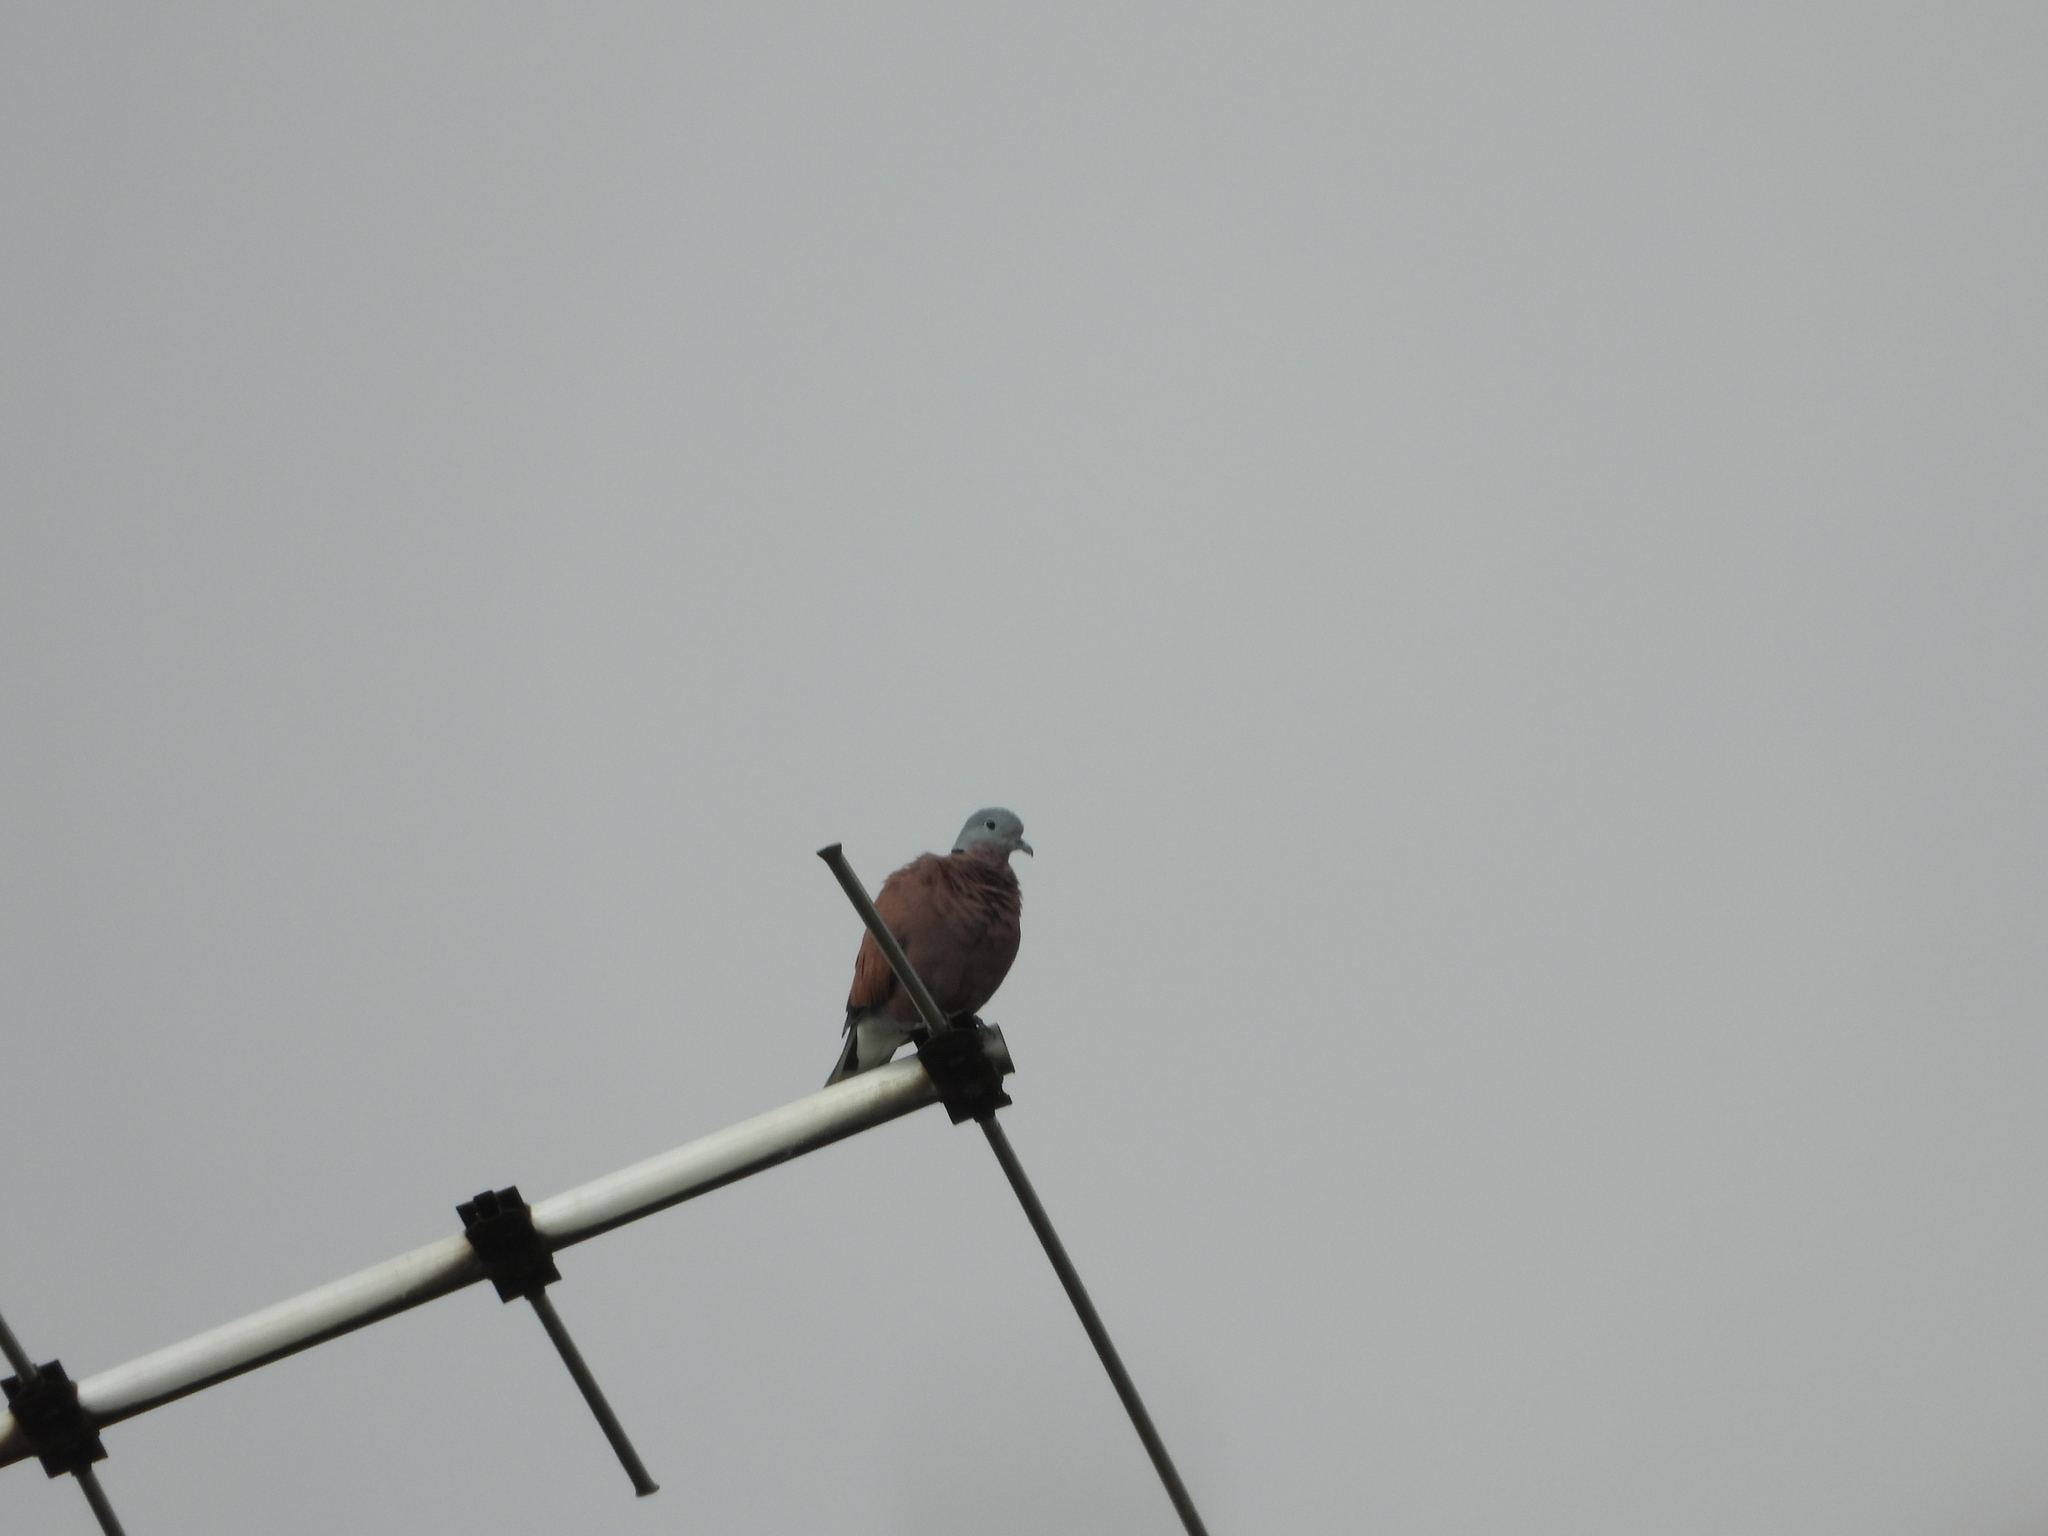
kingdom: Animalia
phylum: Chordata
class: Aves
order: Columbiformes
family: Columbidae
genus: Streptopelia
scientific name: Streptopelia tranquebarica
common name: Red turtle dove
